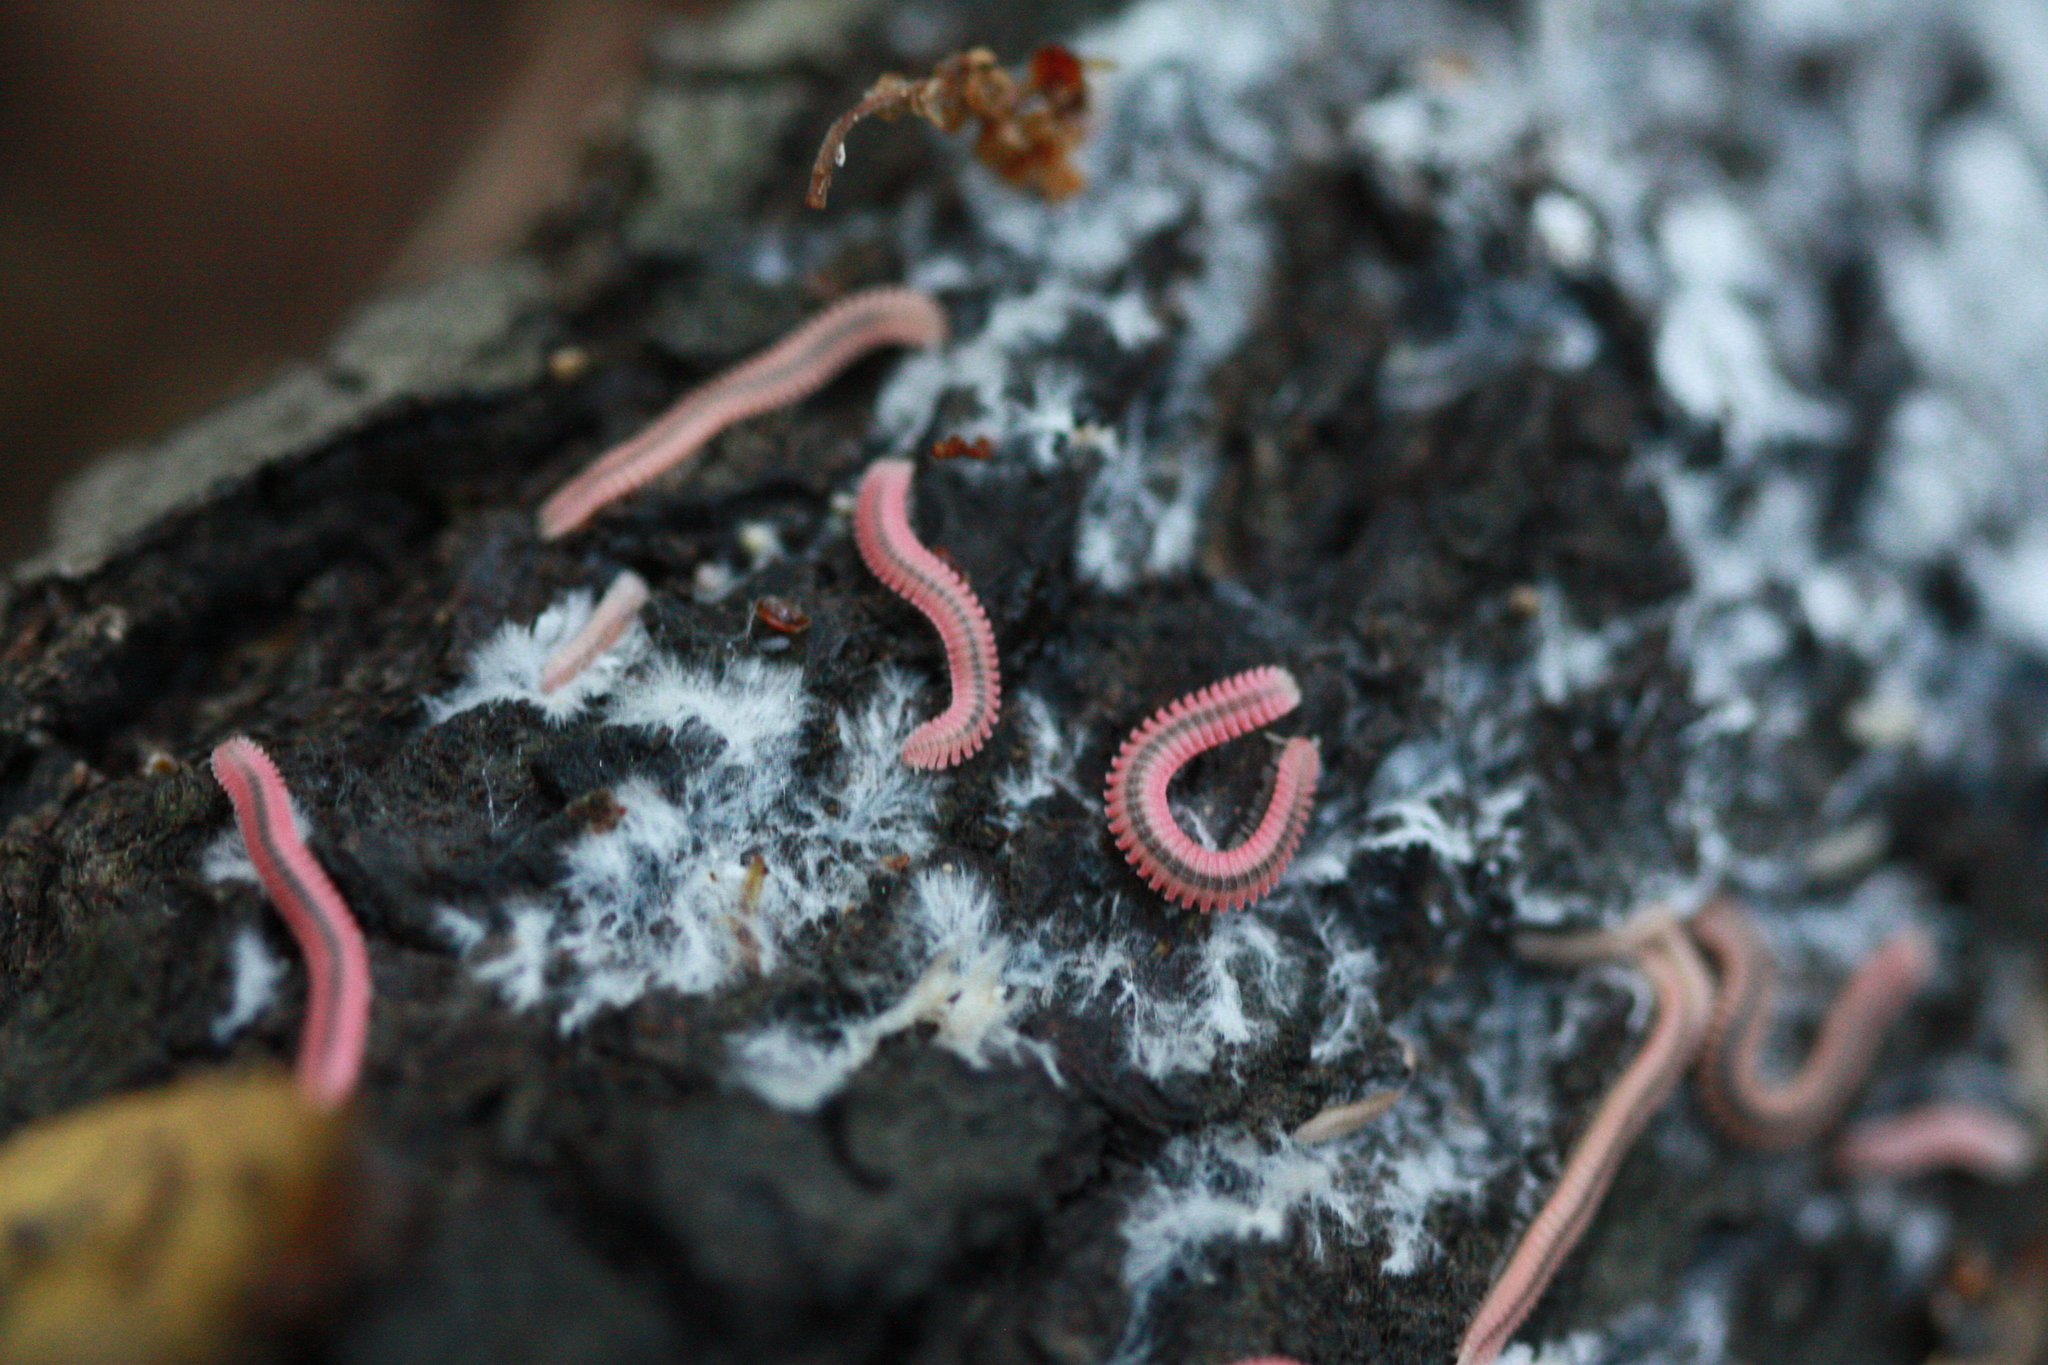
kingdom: Animalia
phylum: Arthropoda
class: Diplopoda
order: Platydesmida
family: Andrognathidae
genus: Plutodesmus
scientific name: Plutodesmus typhlus
